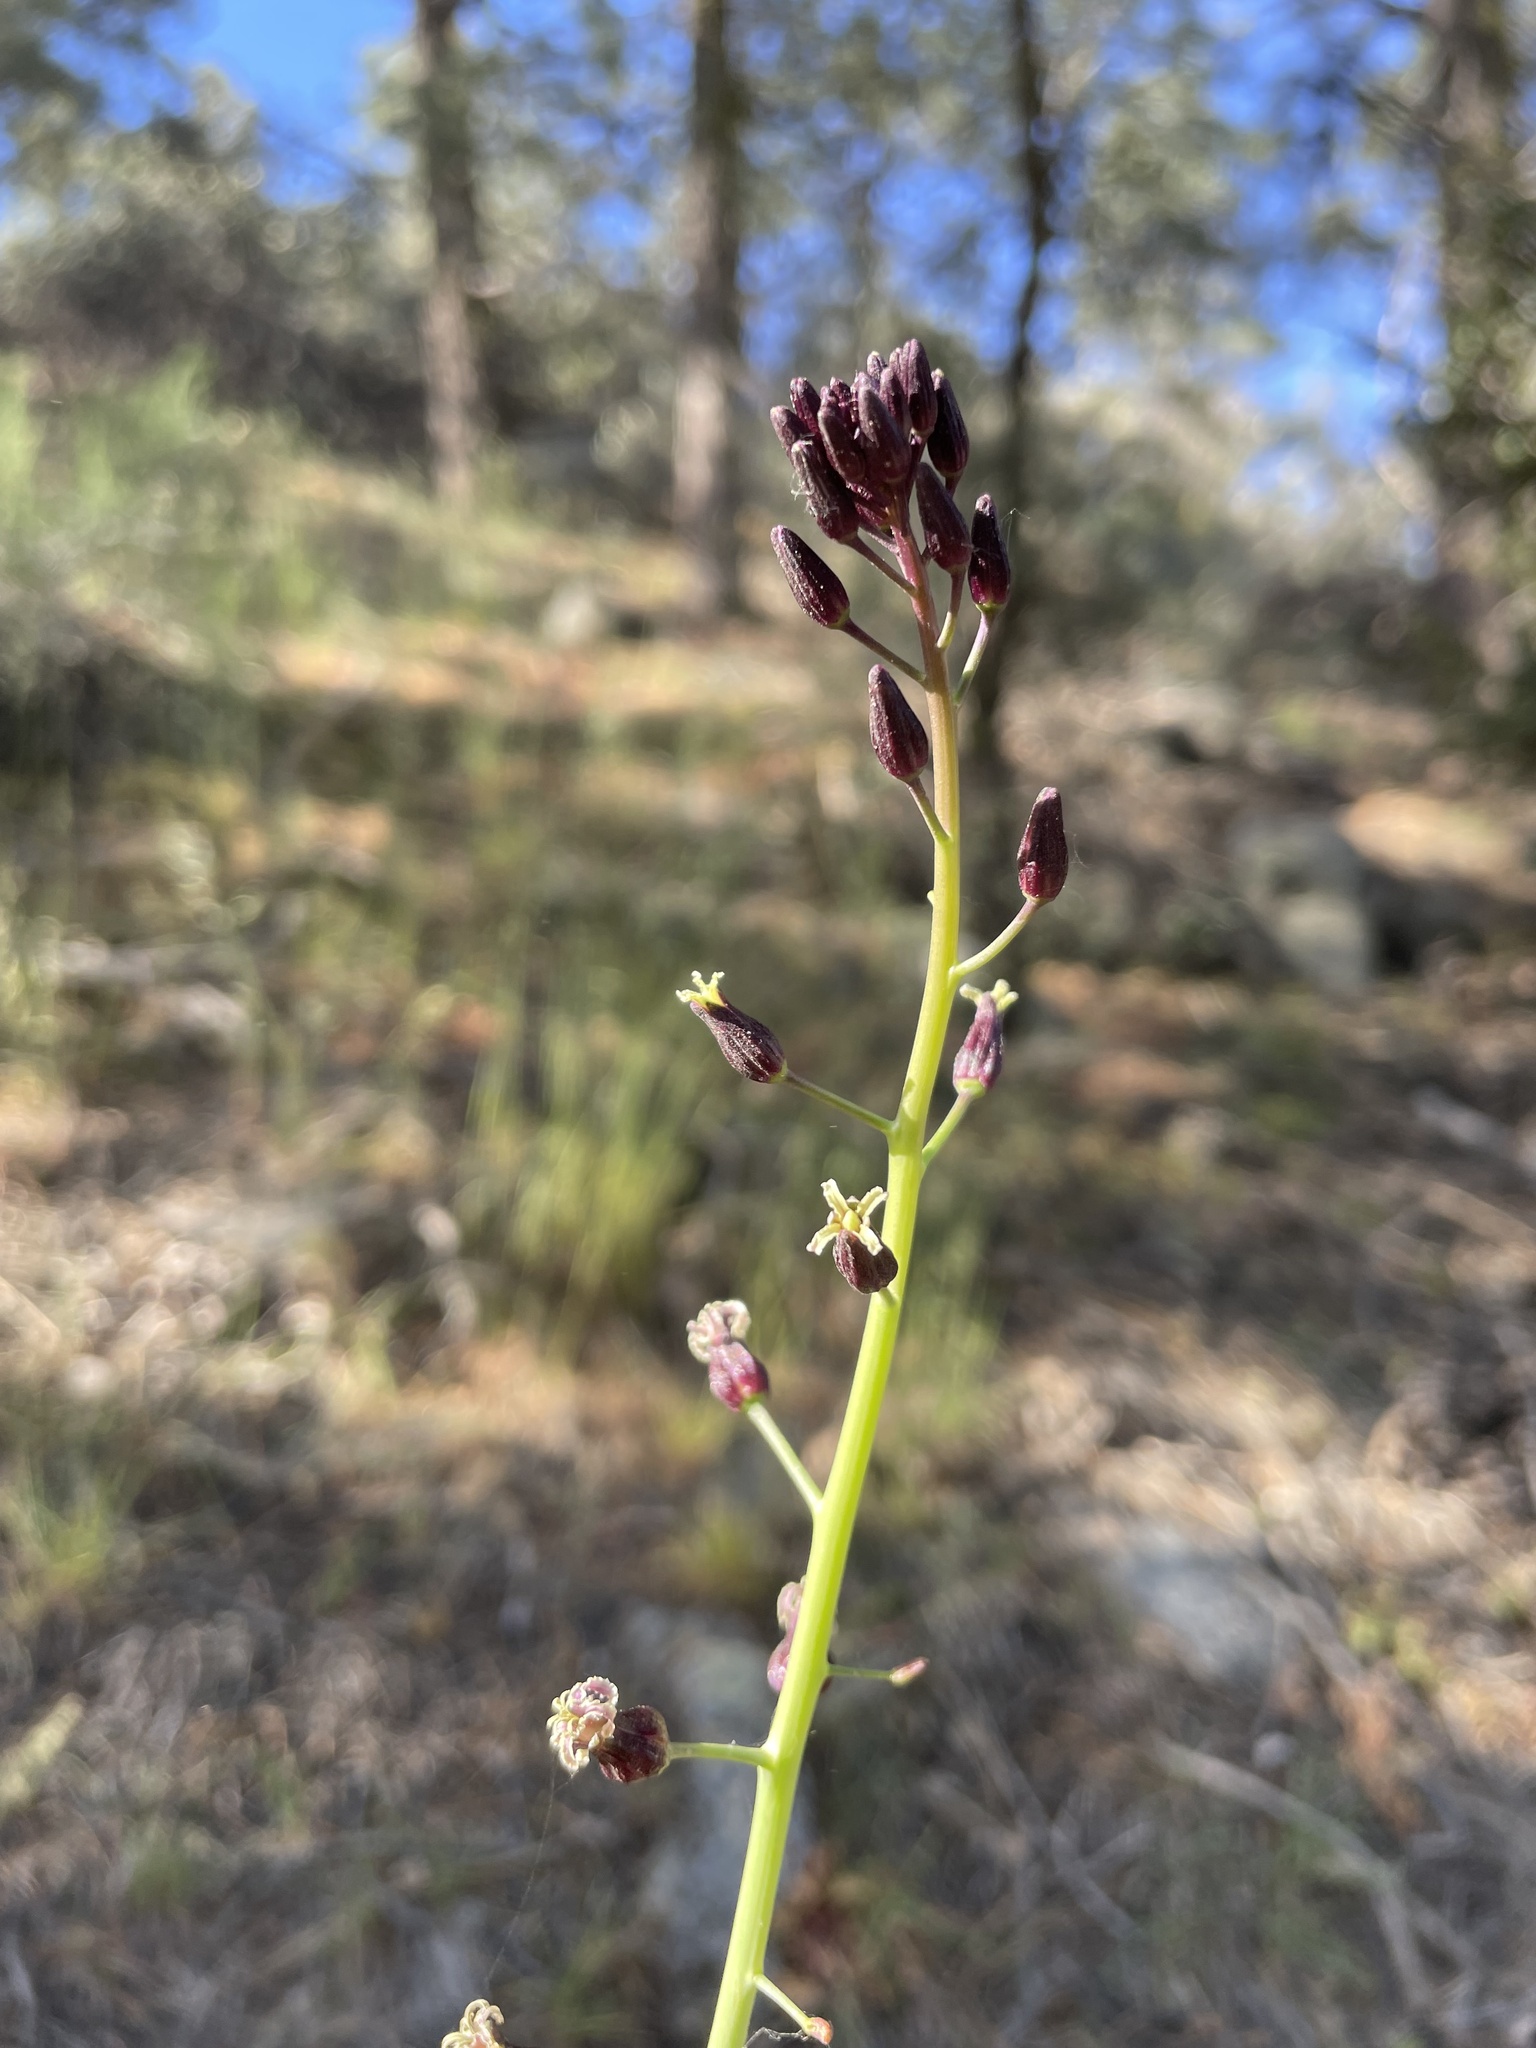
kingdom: Plantae
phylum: Tracheophyta
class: Magnoliopsida
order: Brassicales
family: Brassicaceae
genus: Streptanthus
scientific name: Streptanthus pilosus
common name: Chocolate drops
